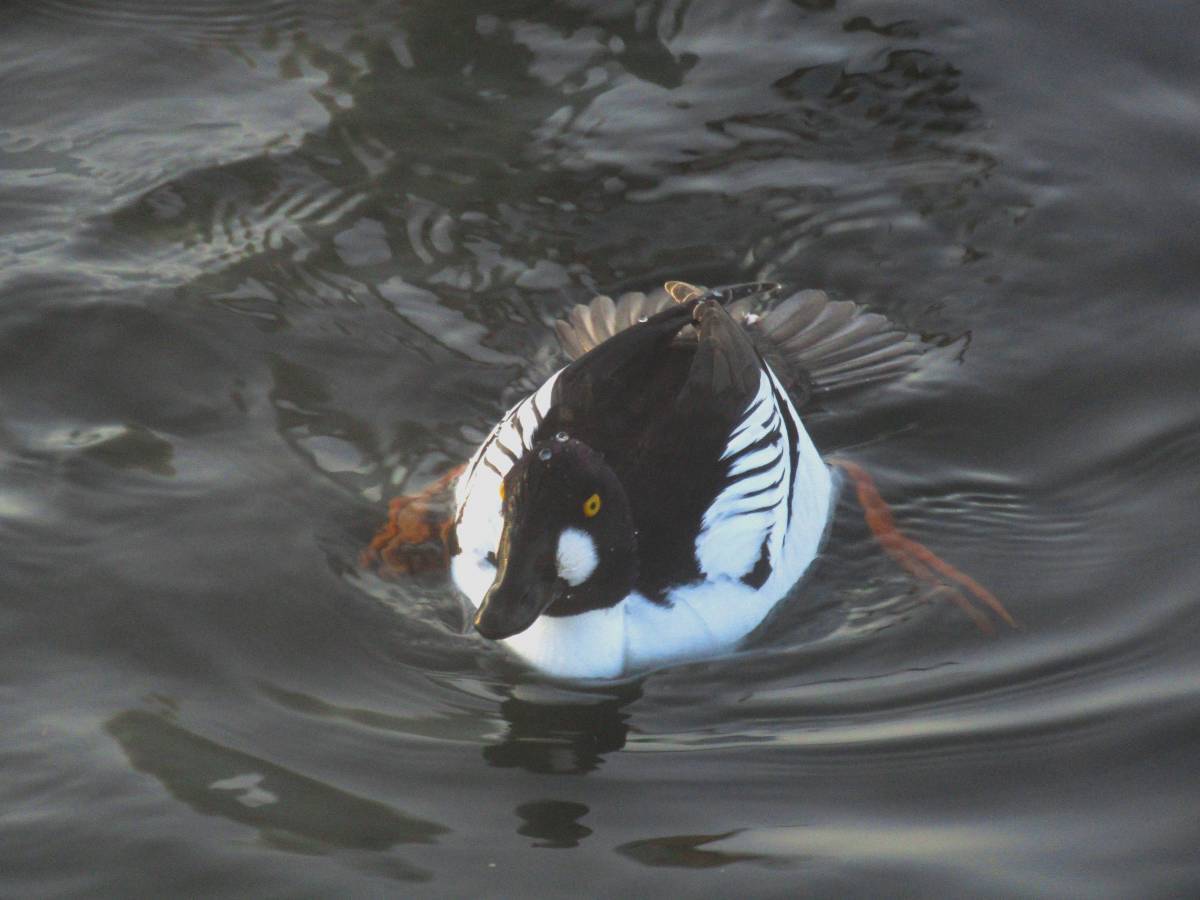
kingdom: Animalia
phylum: Chordata
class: Aves
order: Anseriformes
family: Anatidae
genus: Bucephala
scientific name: Bucephala clangula
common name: Common goldeneye
